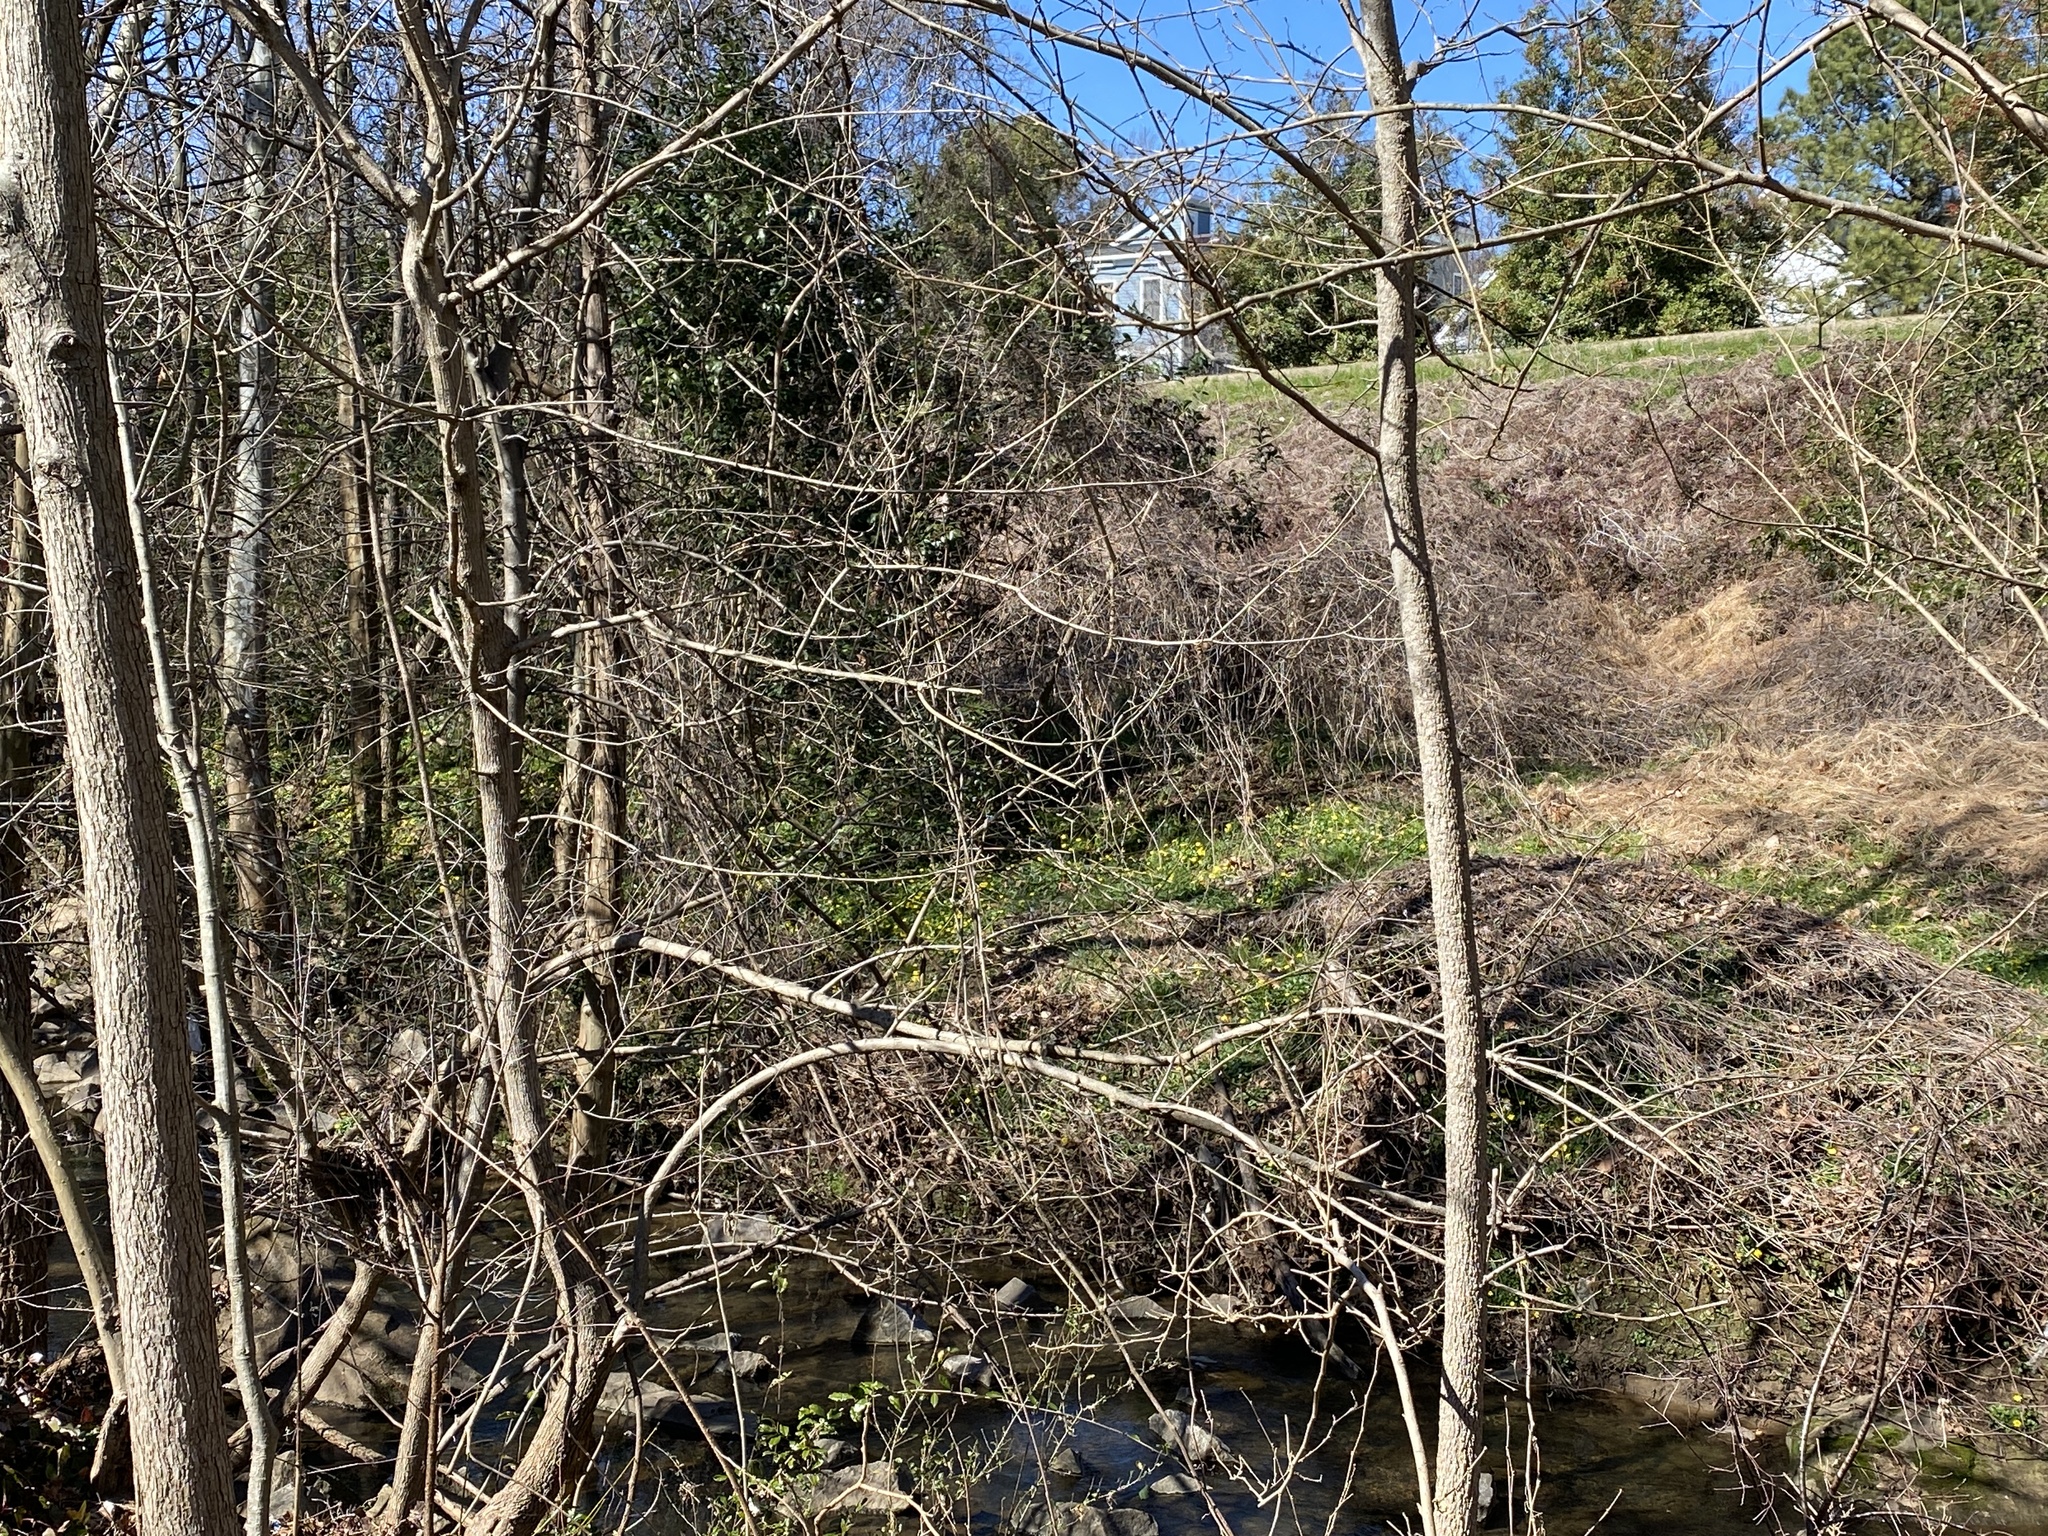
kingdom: Plantae
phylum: Tracheophyta
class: Magnoliopsida
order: Ranunculales
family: Ranunculaceae
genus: Ficaria
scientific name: Ficaria verna
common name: Lesser celandine
